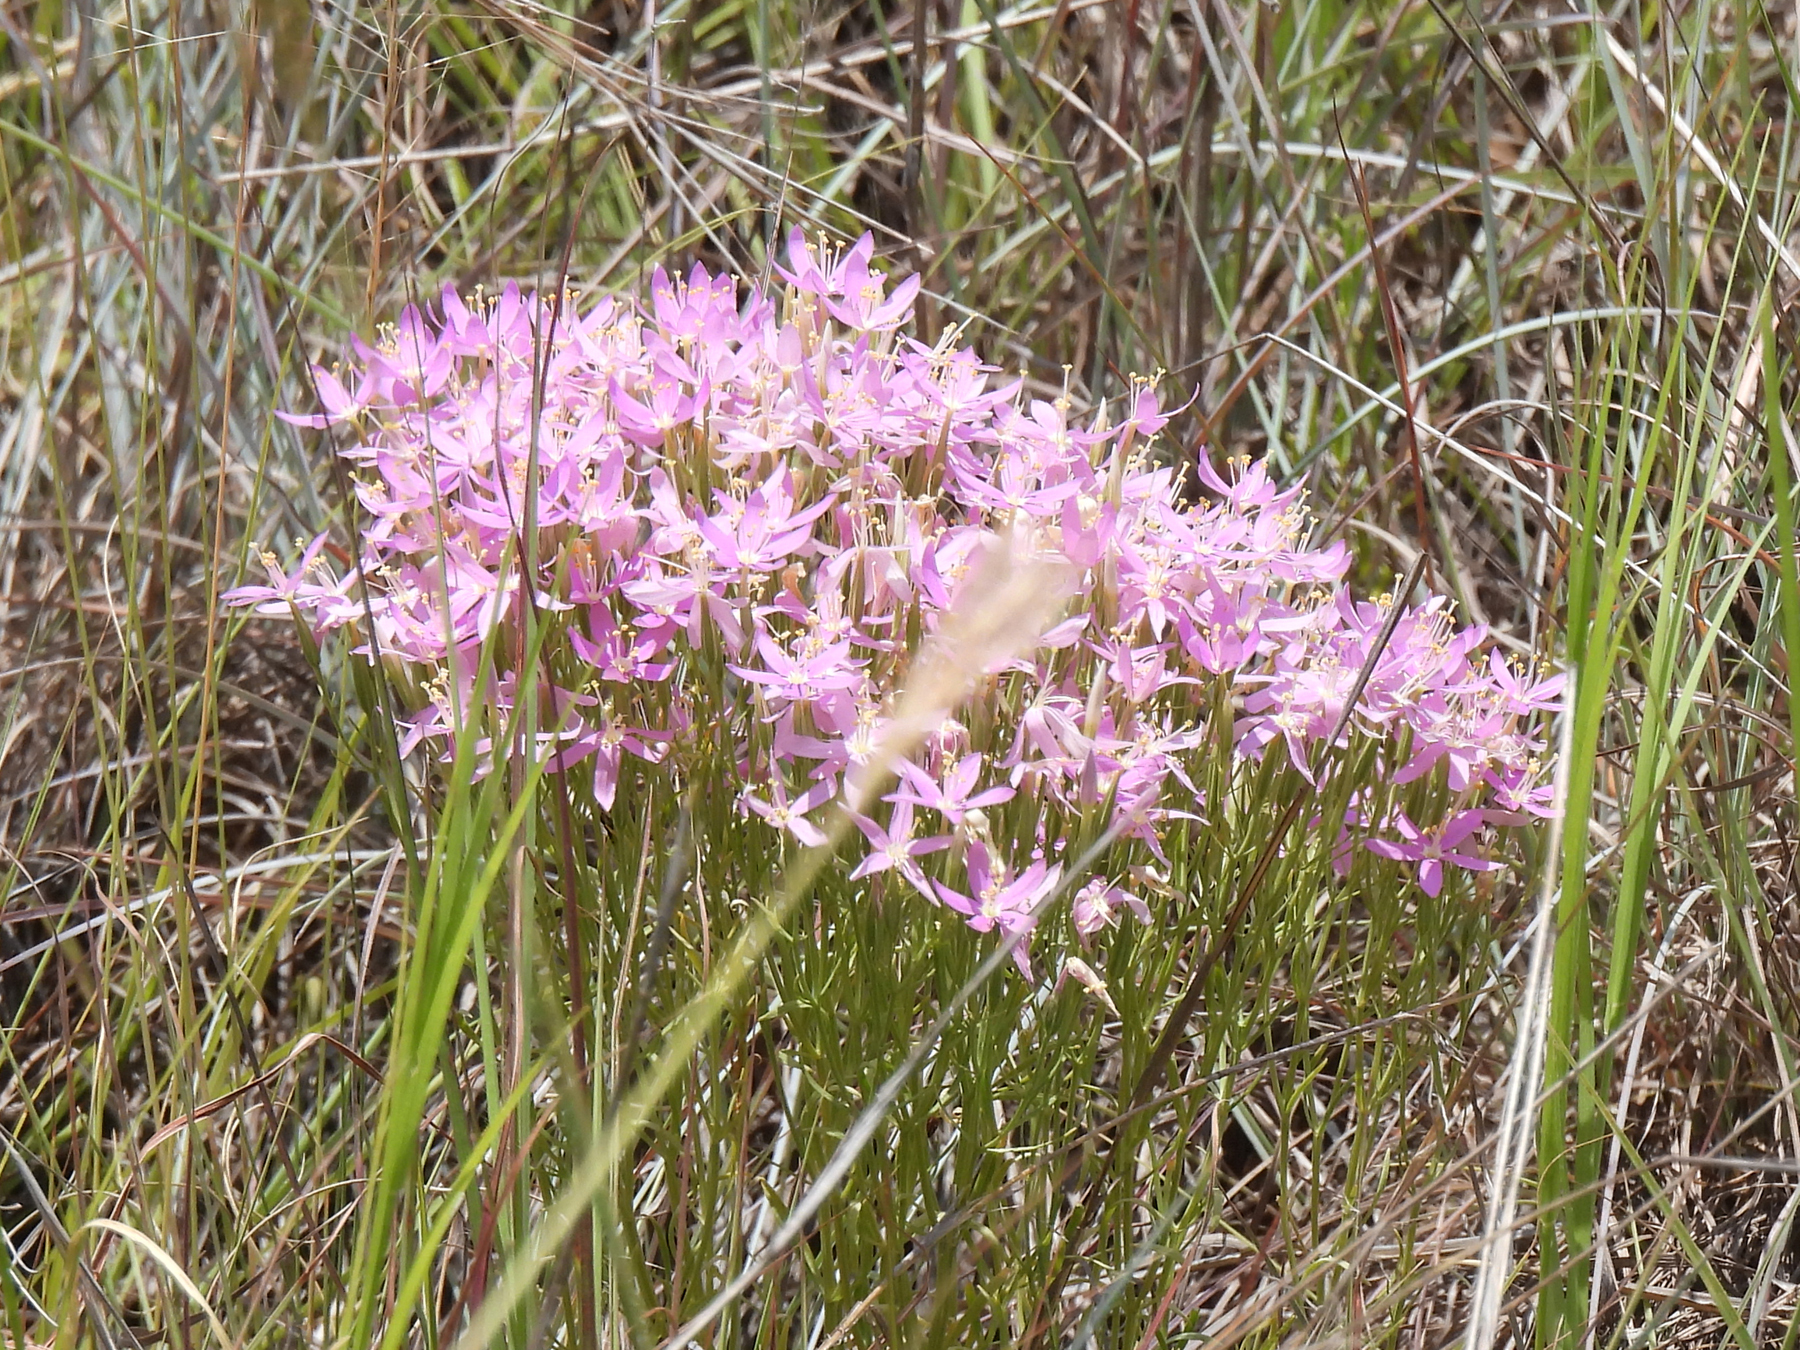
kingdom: Plantae
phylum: Tracheophyta
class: Magnoliopsida
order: Gentianales
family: Gentianaceae
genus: Zeltnera
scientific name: Zeltnera beyrichii
